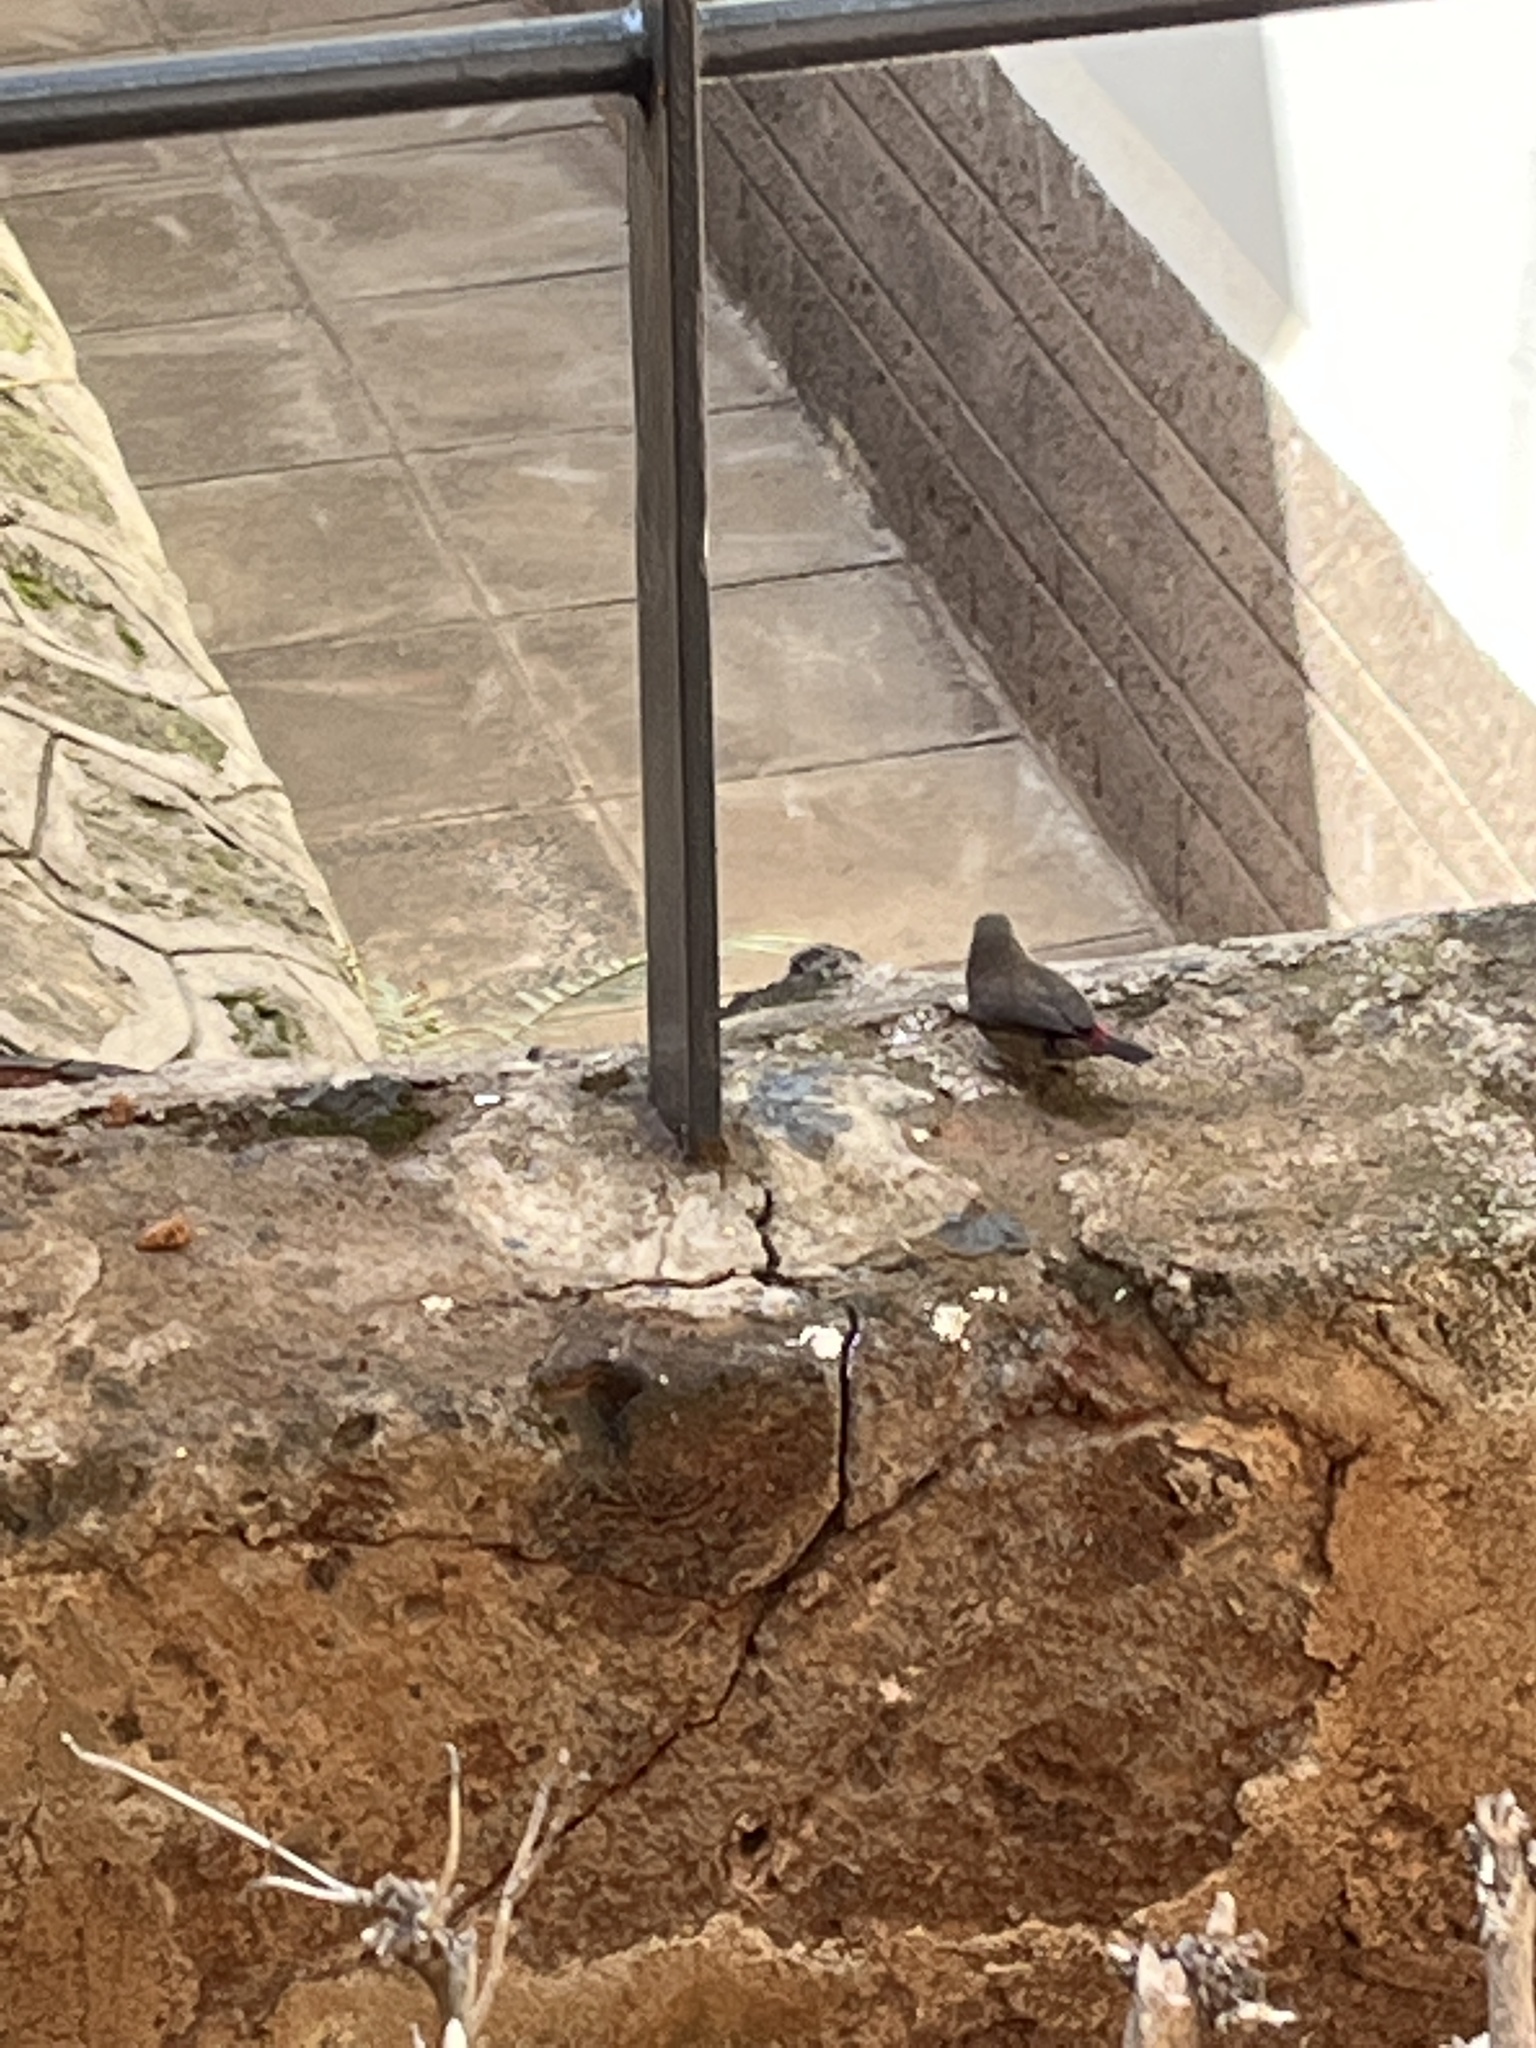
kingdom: Animalia
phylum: Chordata
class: Aves
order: Passeriformes
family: Estrildidae
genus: Lagonosticta
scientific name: Lagonosticta senegala
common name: Red-billed firefinch
